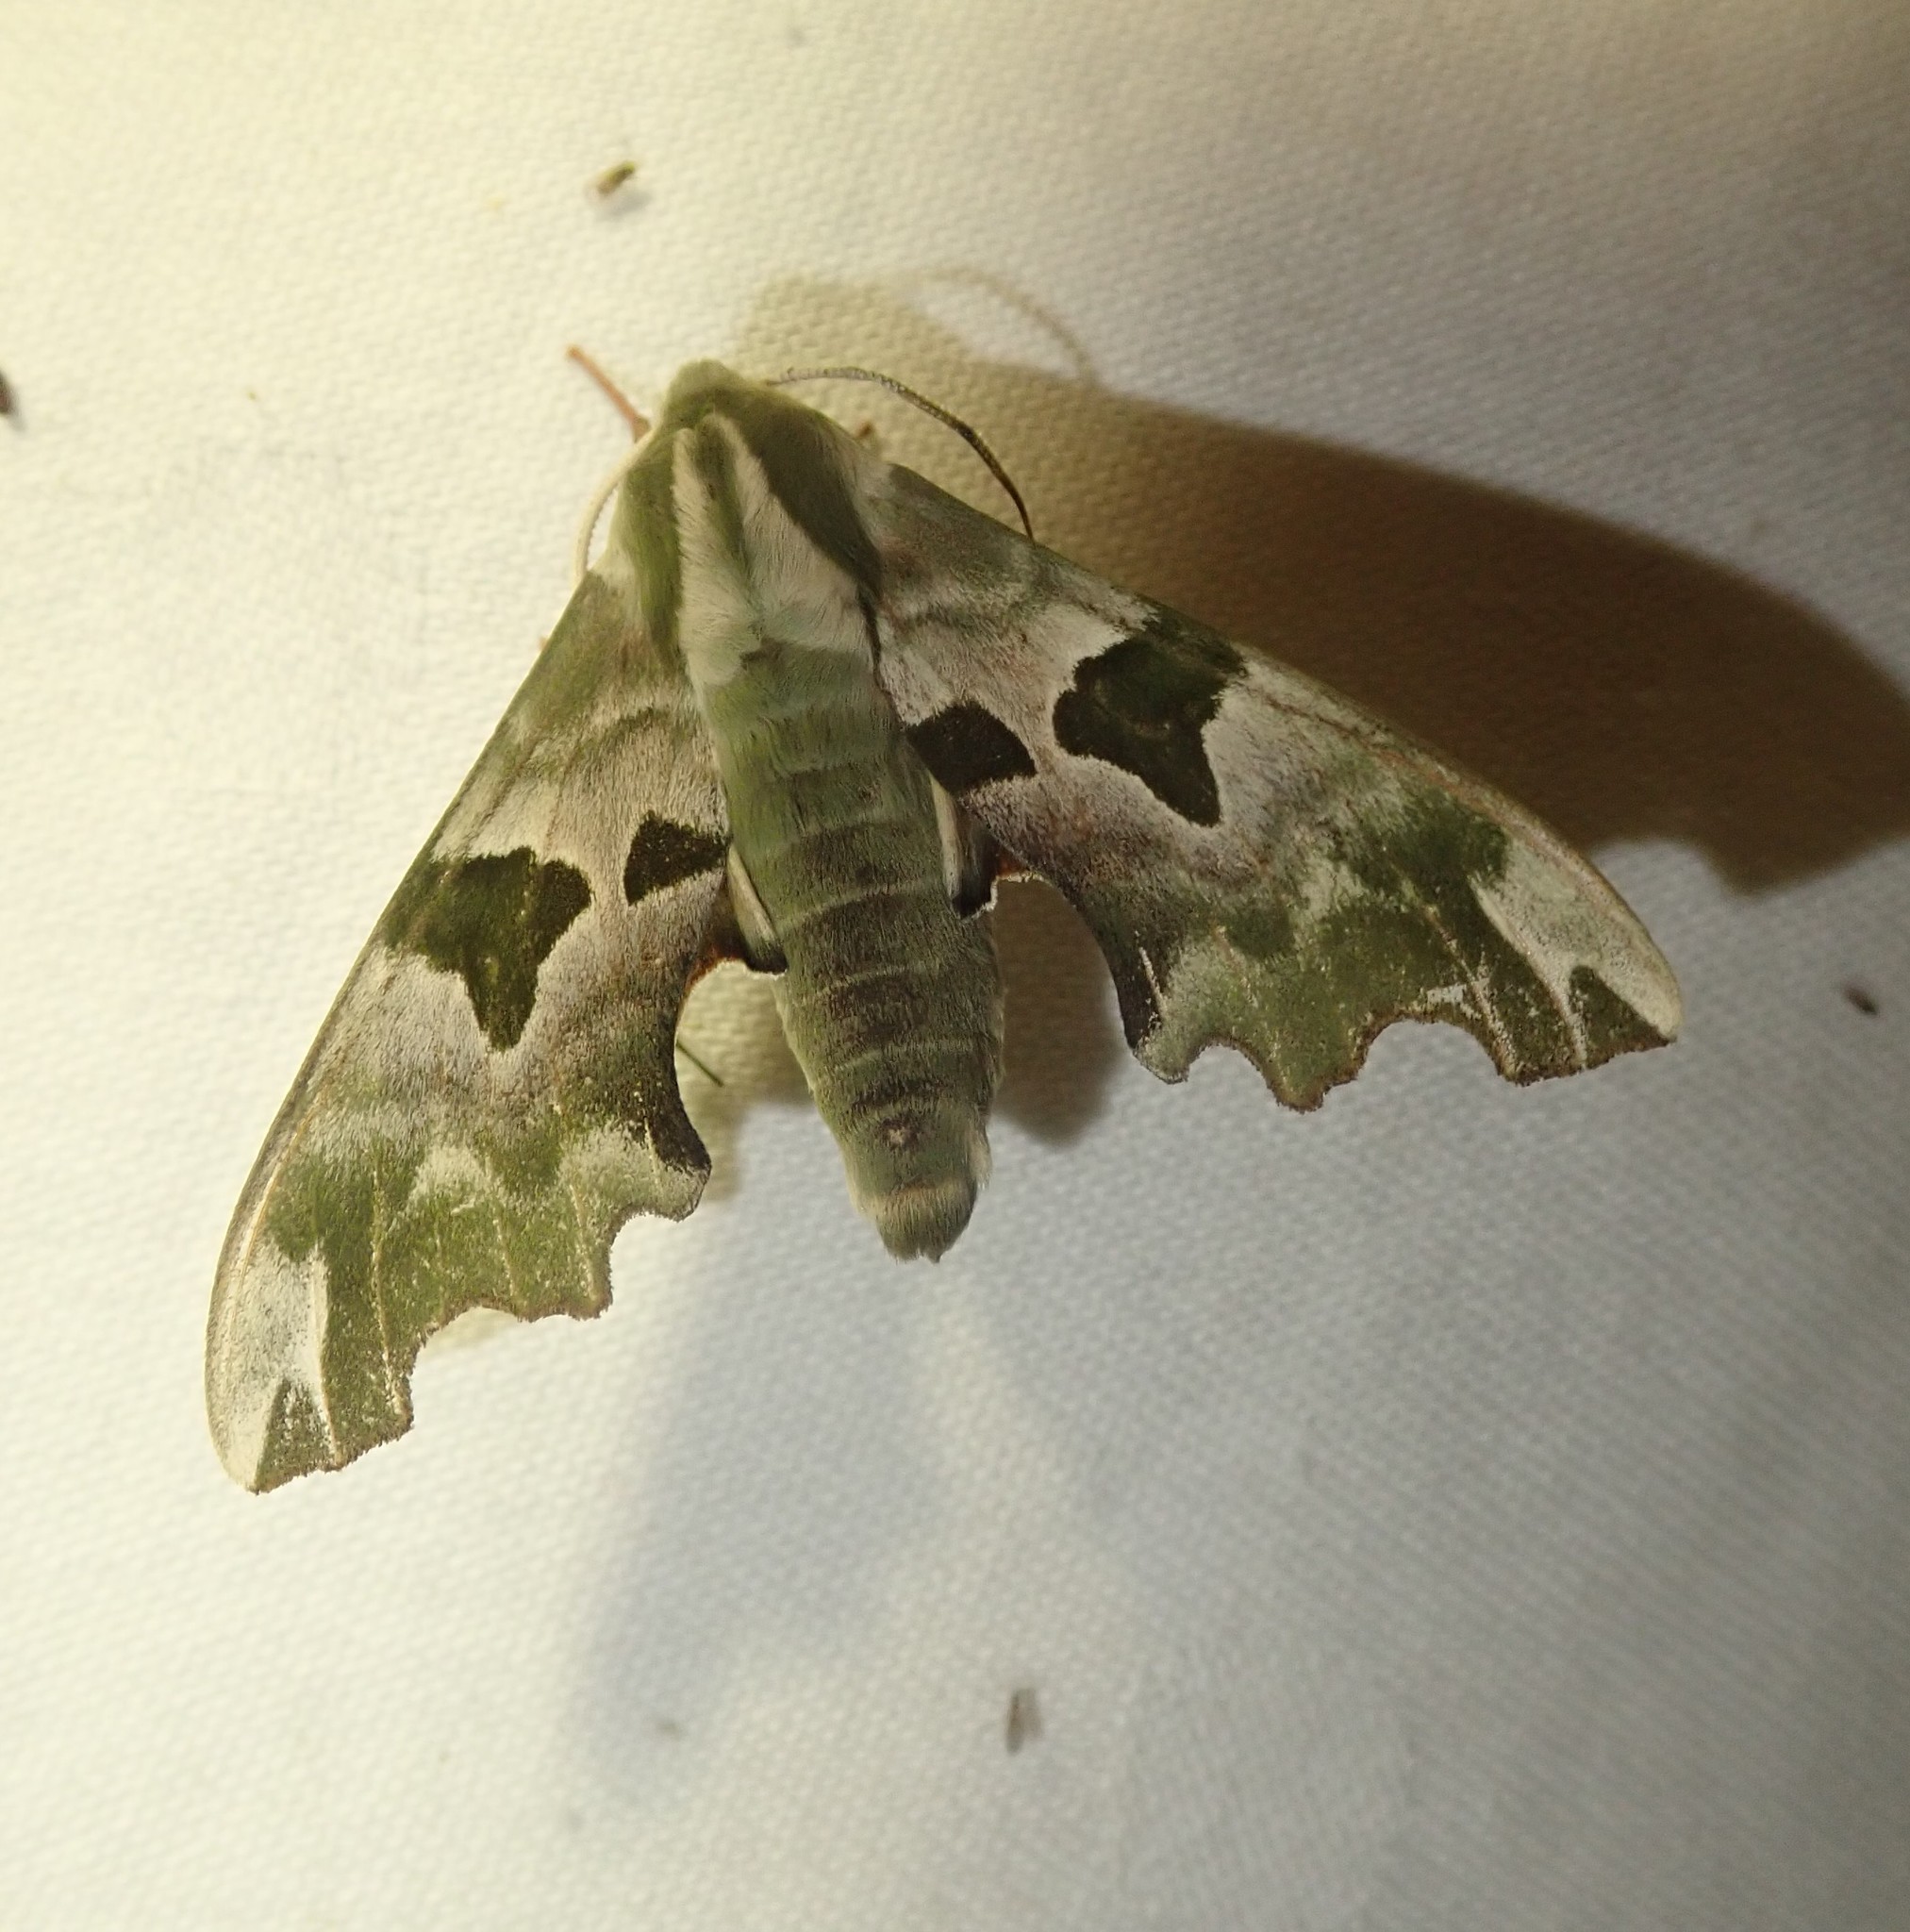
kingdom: Animalia
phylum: Arthropoda
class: Insecta
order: Lepidoptera
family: Sphingidae
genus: Mimas
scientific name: Mimas tiliae
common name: Lime hawk-moth
